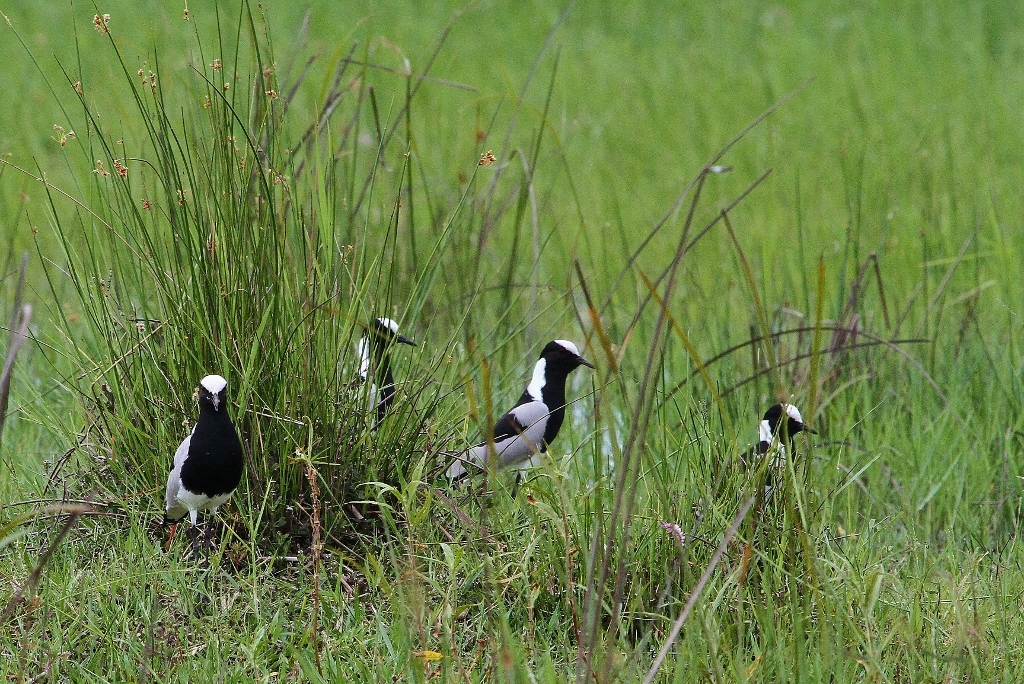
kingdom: Animalia
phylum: Chordata
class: Aves
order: Charadriiformes
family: Charadriidae
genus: Vanellus
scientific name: Vanellus armatus
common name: Blacksmith lapwing
